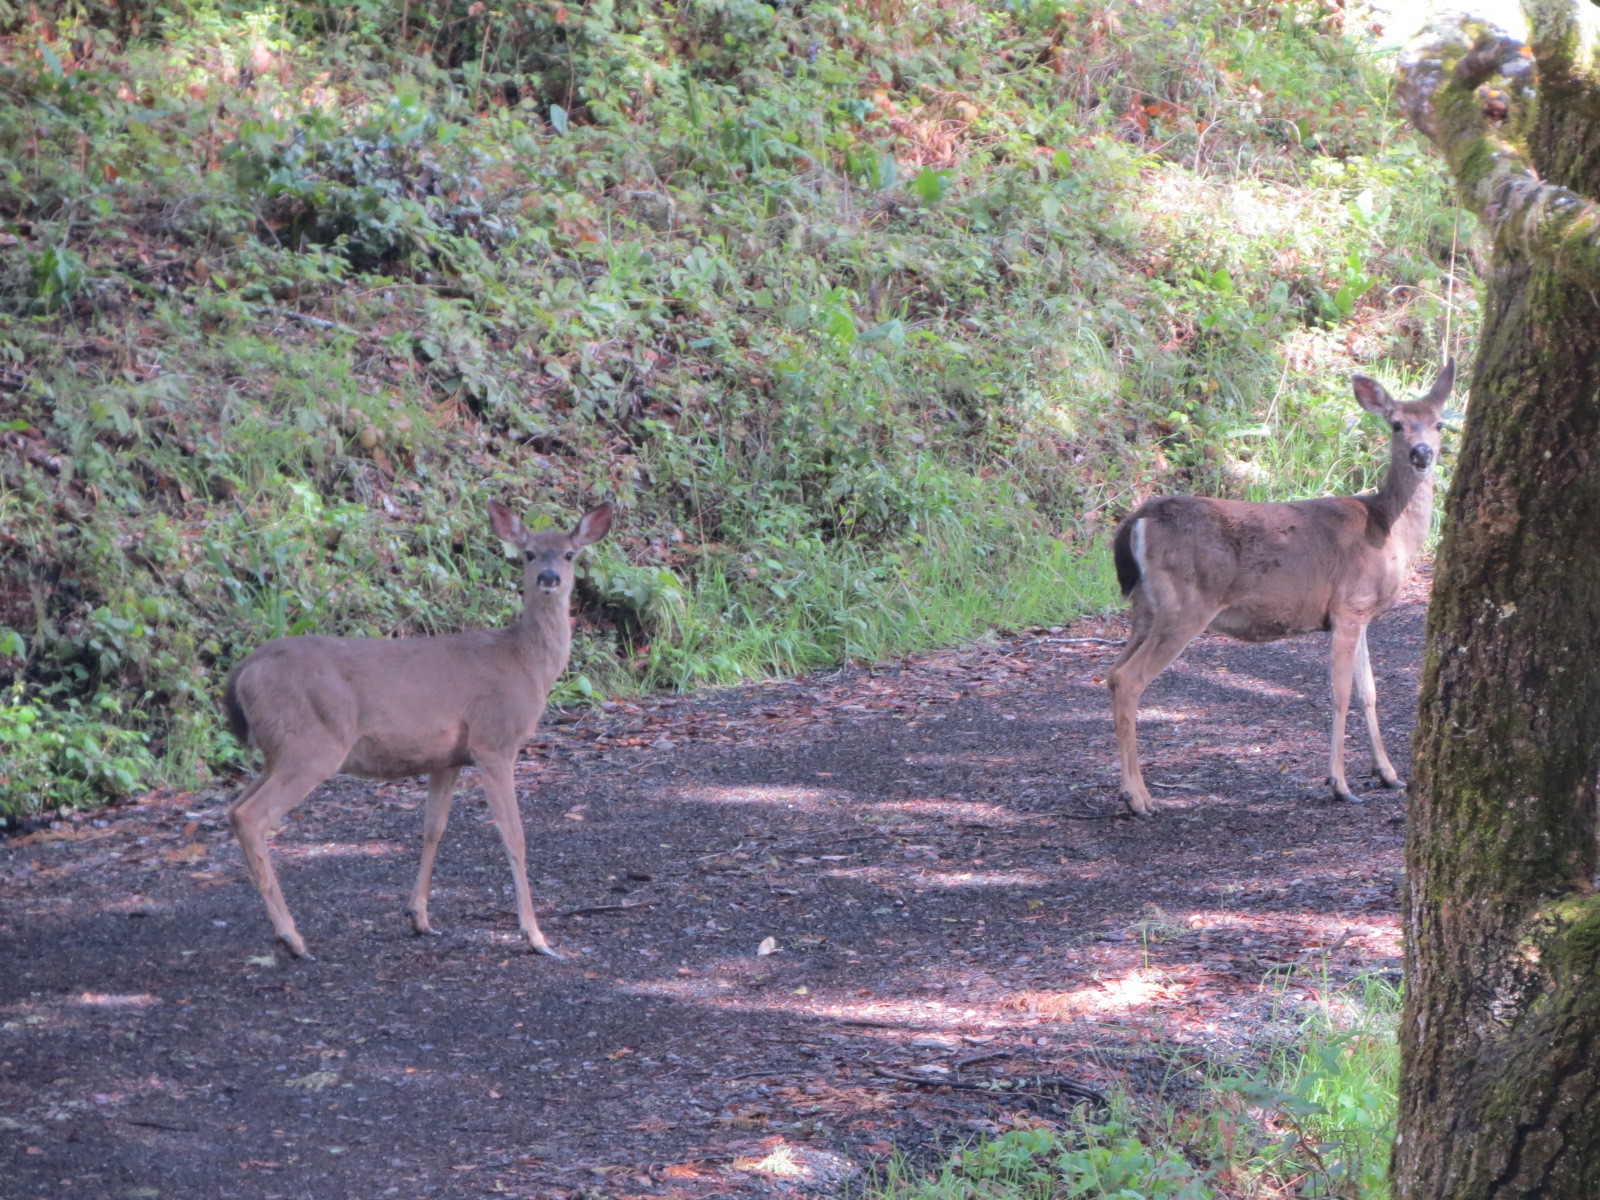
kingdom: Animalia
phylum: Chordata
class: Mammalia
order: Artiodactyla
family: Cervidae
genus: Odocoileus
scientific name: Odocoileus hemionus
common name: Mule deer
